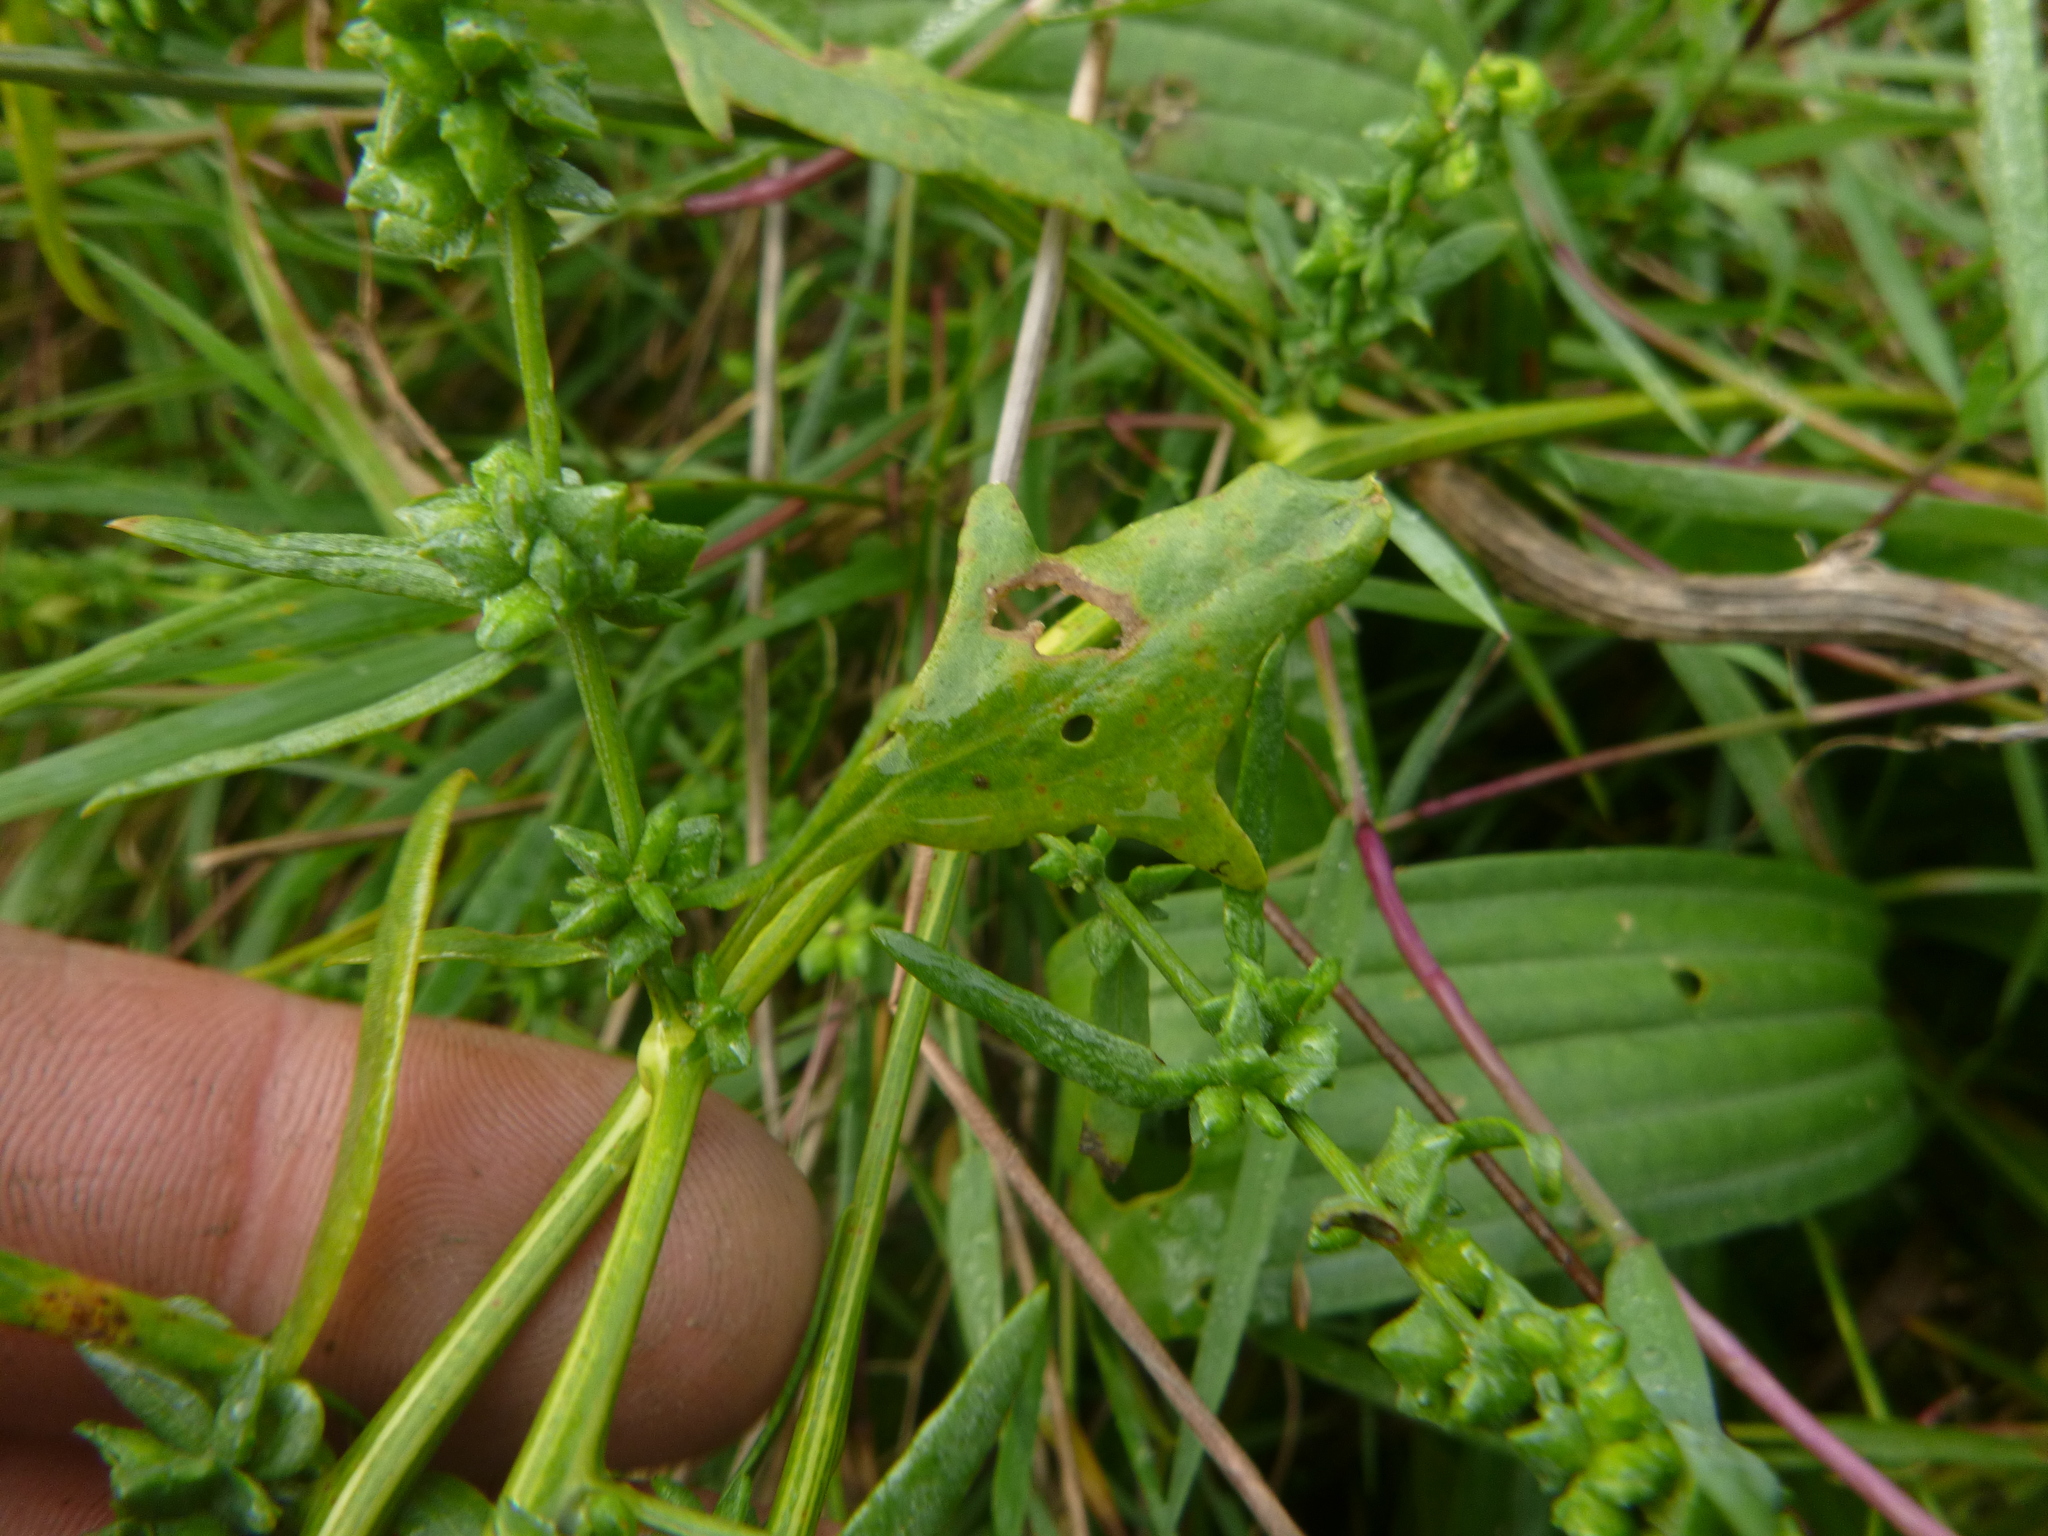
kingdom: Plantae
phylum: Tracheophyta
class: Magnoliopsida
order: Caryophyllales
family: Amaranthaceae
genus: Atriplex
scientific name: Atriplex patula
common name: Common orache
